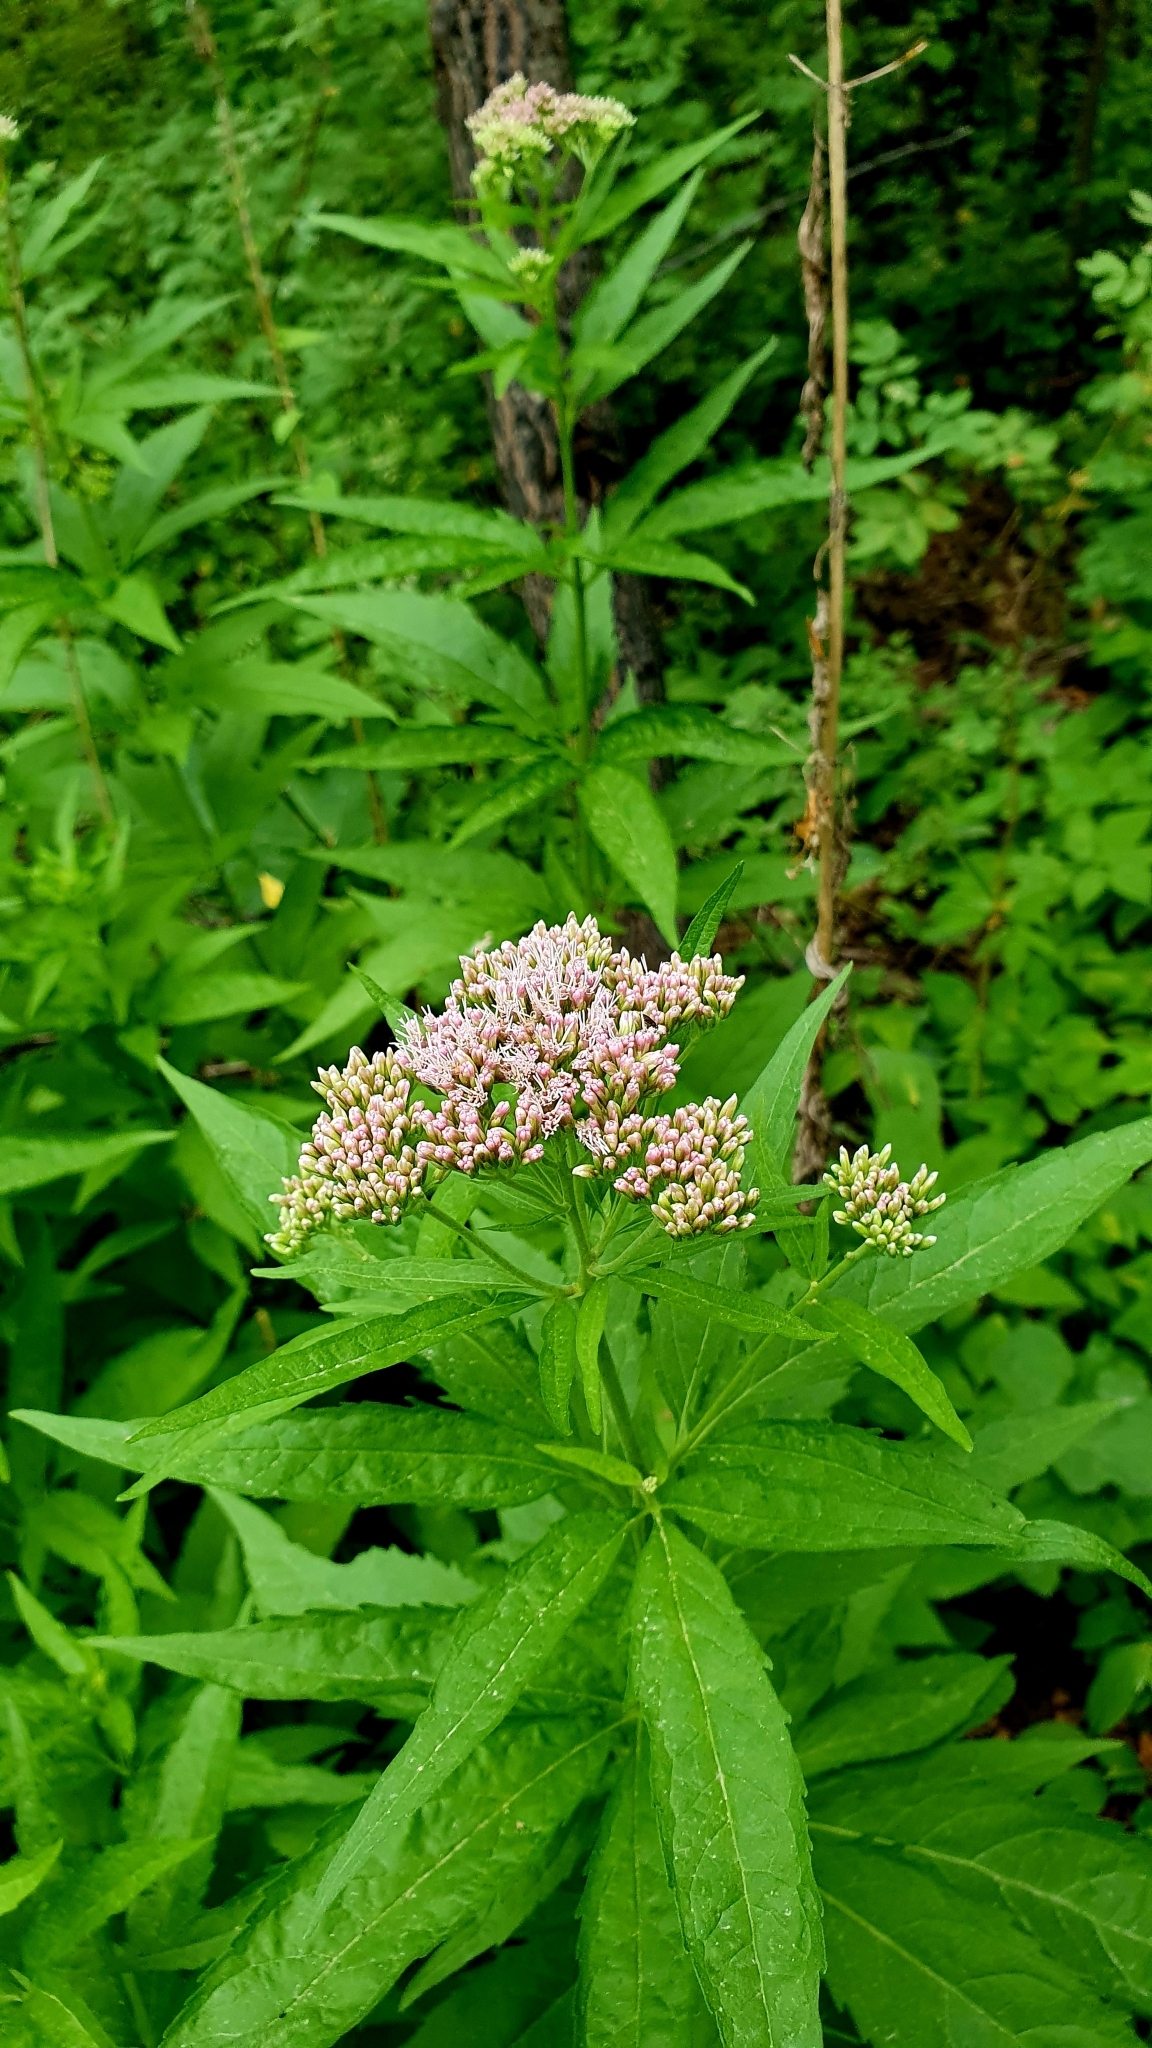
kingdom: Plantae
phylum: Tracheophyta
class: Magnoliopsida
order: Asterales
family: Asteraceae
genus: Eupatorium
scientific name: Eupatorium cannabinum
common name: Hemp-agrimony
